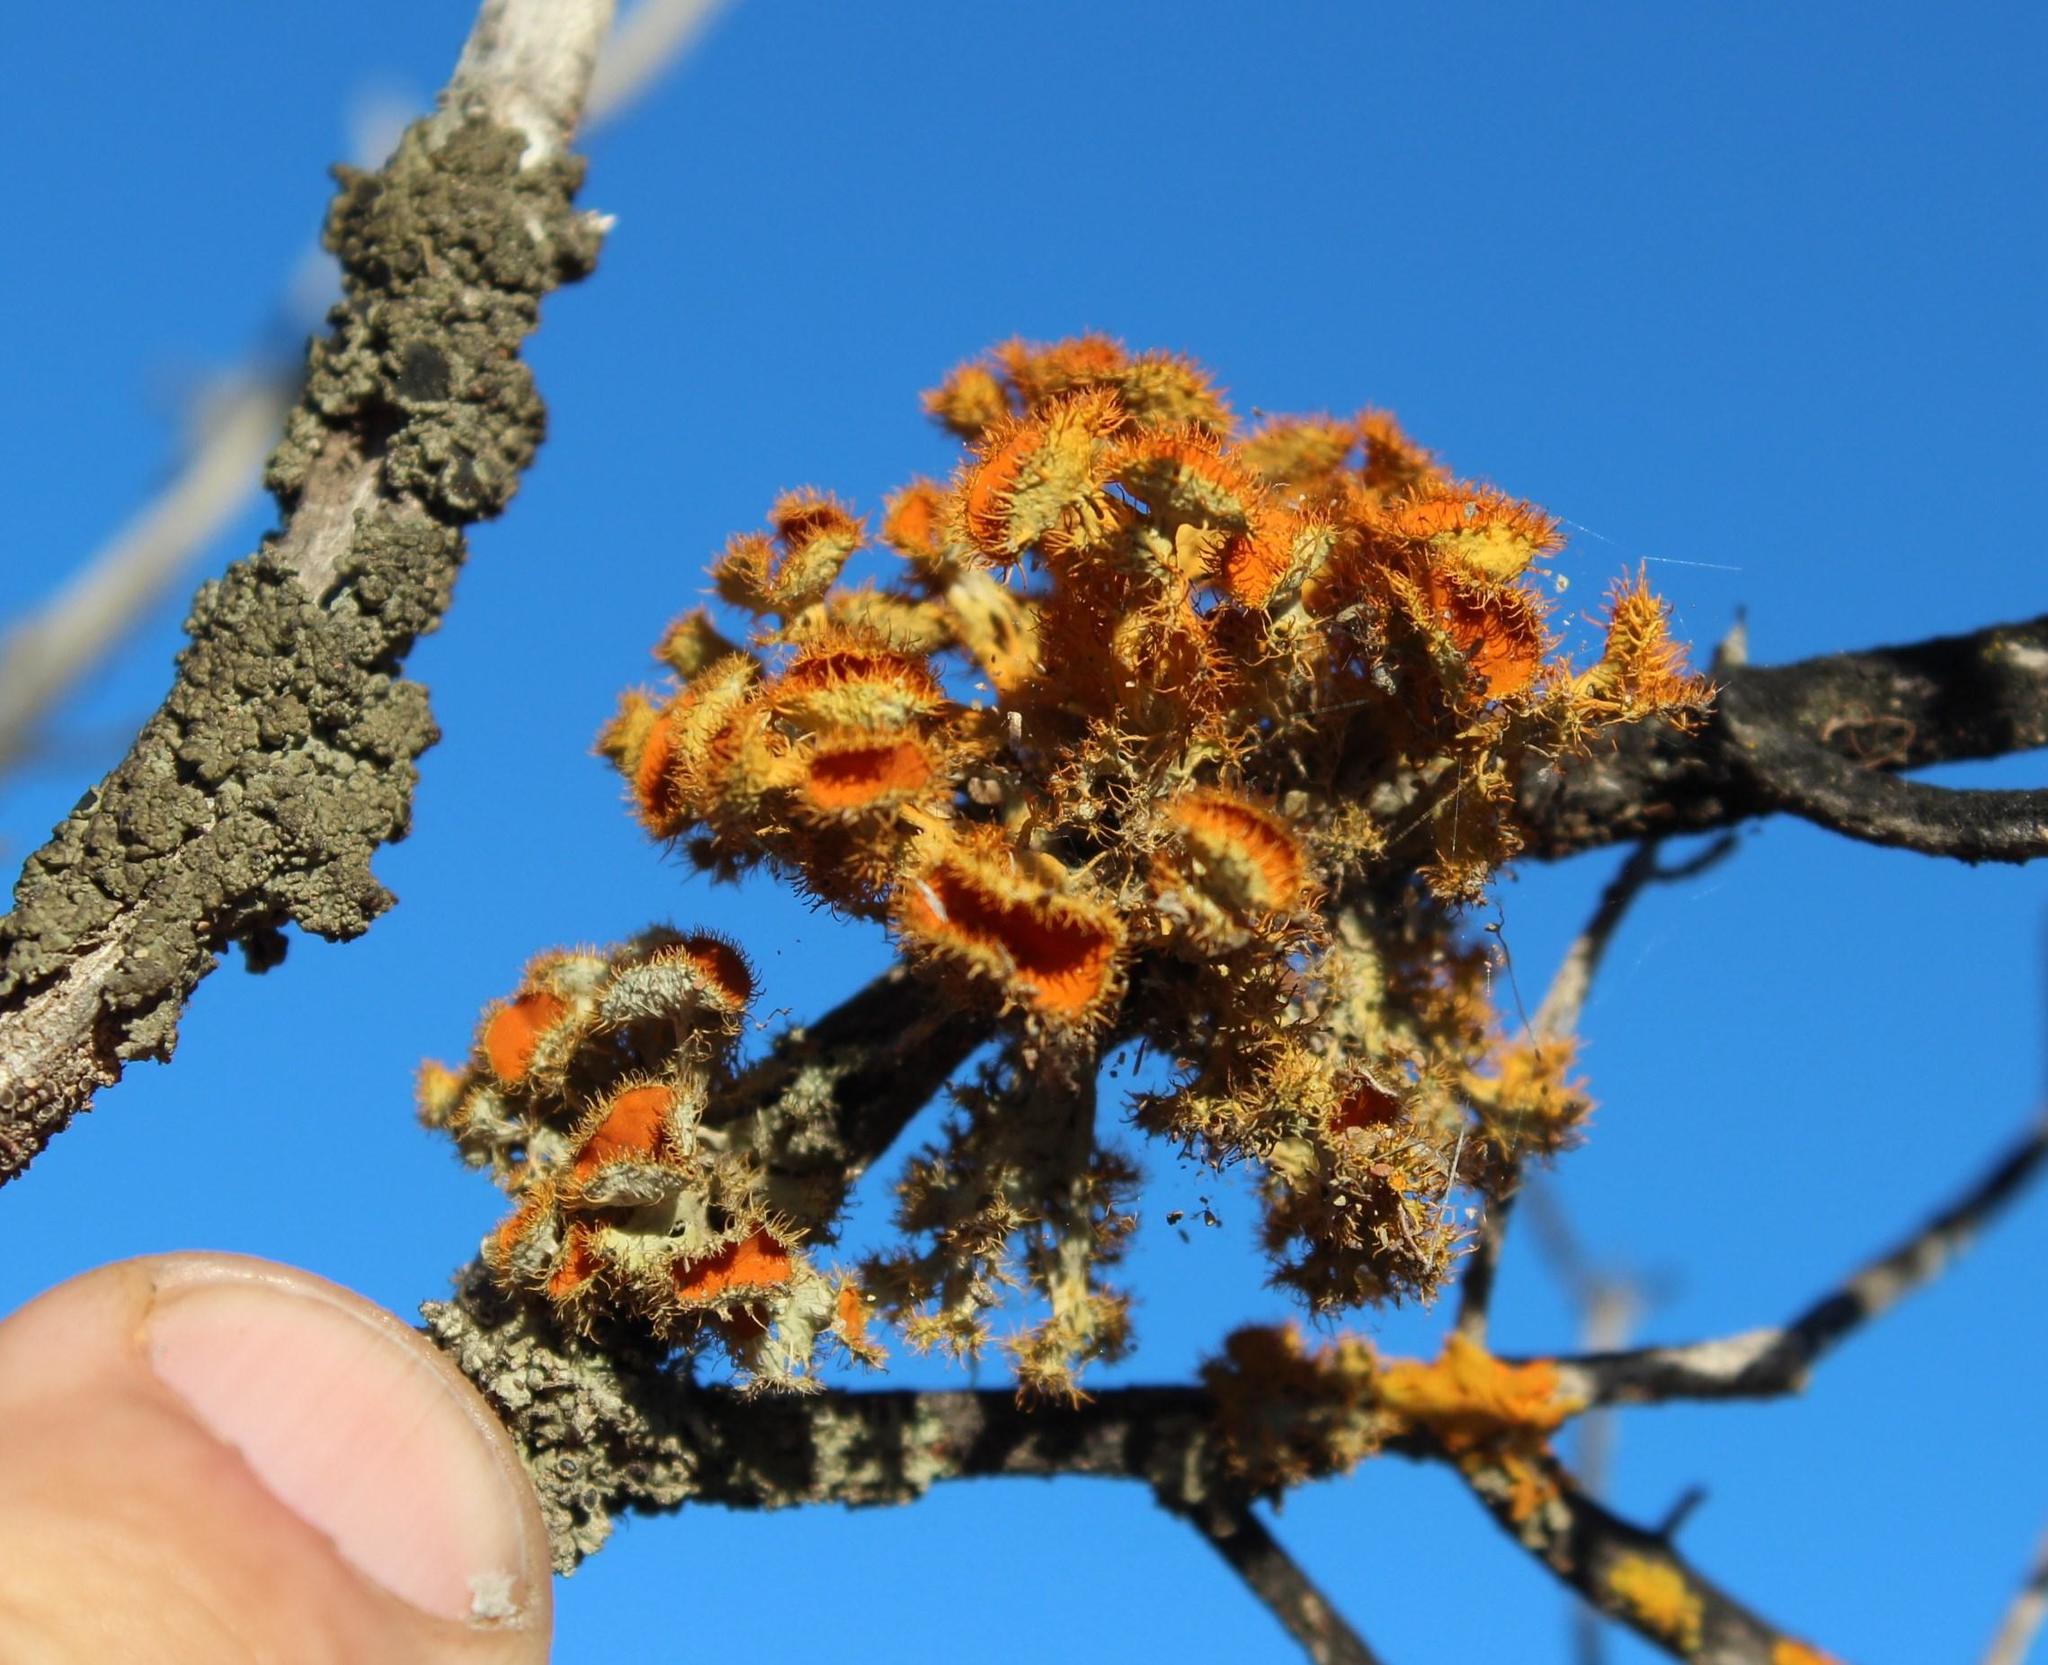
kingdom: Fungi
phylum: Ascomycota
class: Lecanoromycetes
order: Teloschistales
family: Teloschistaceae
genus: Niorma
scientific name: Niorma chrysophthalma
